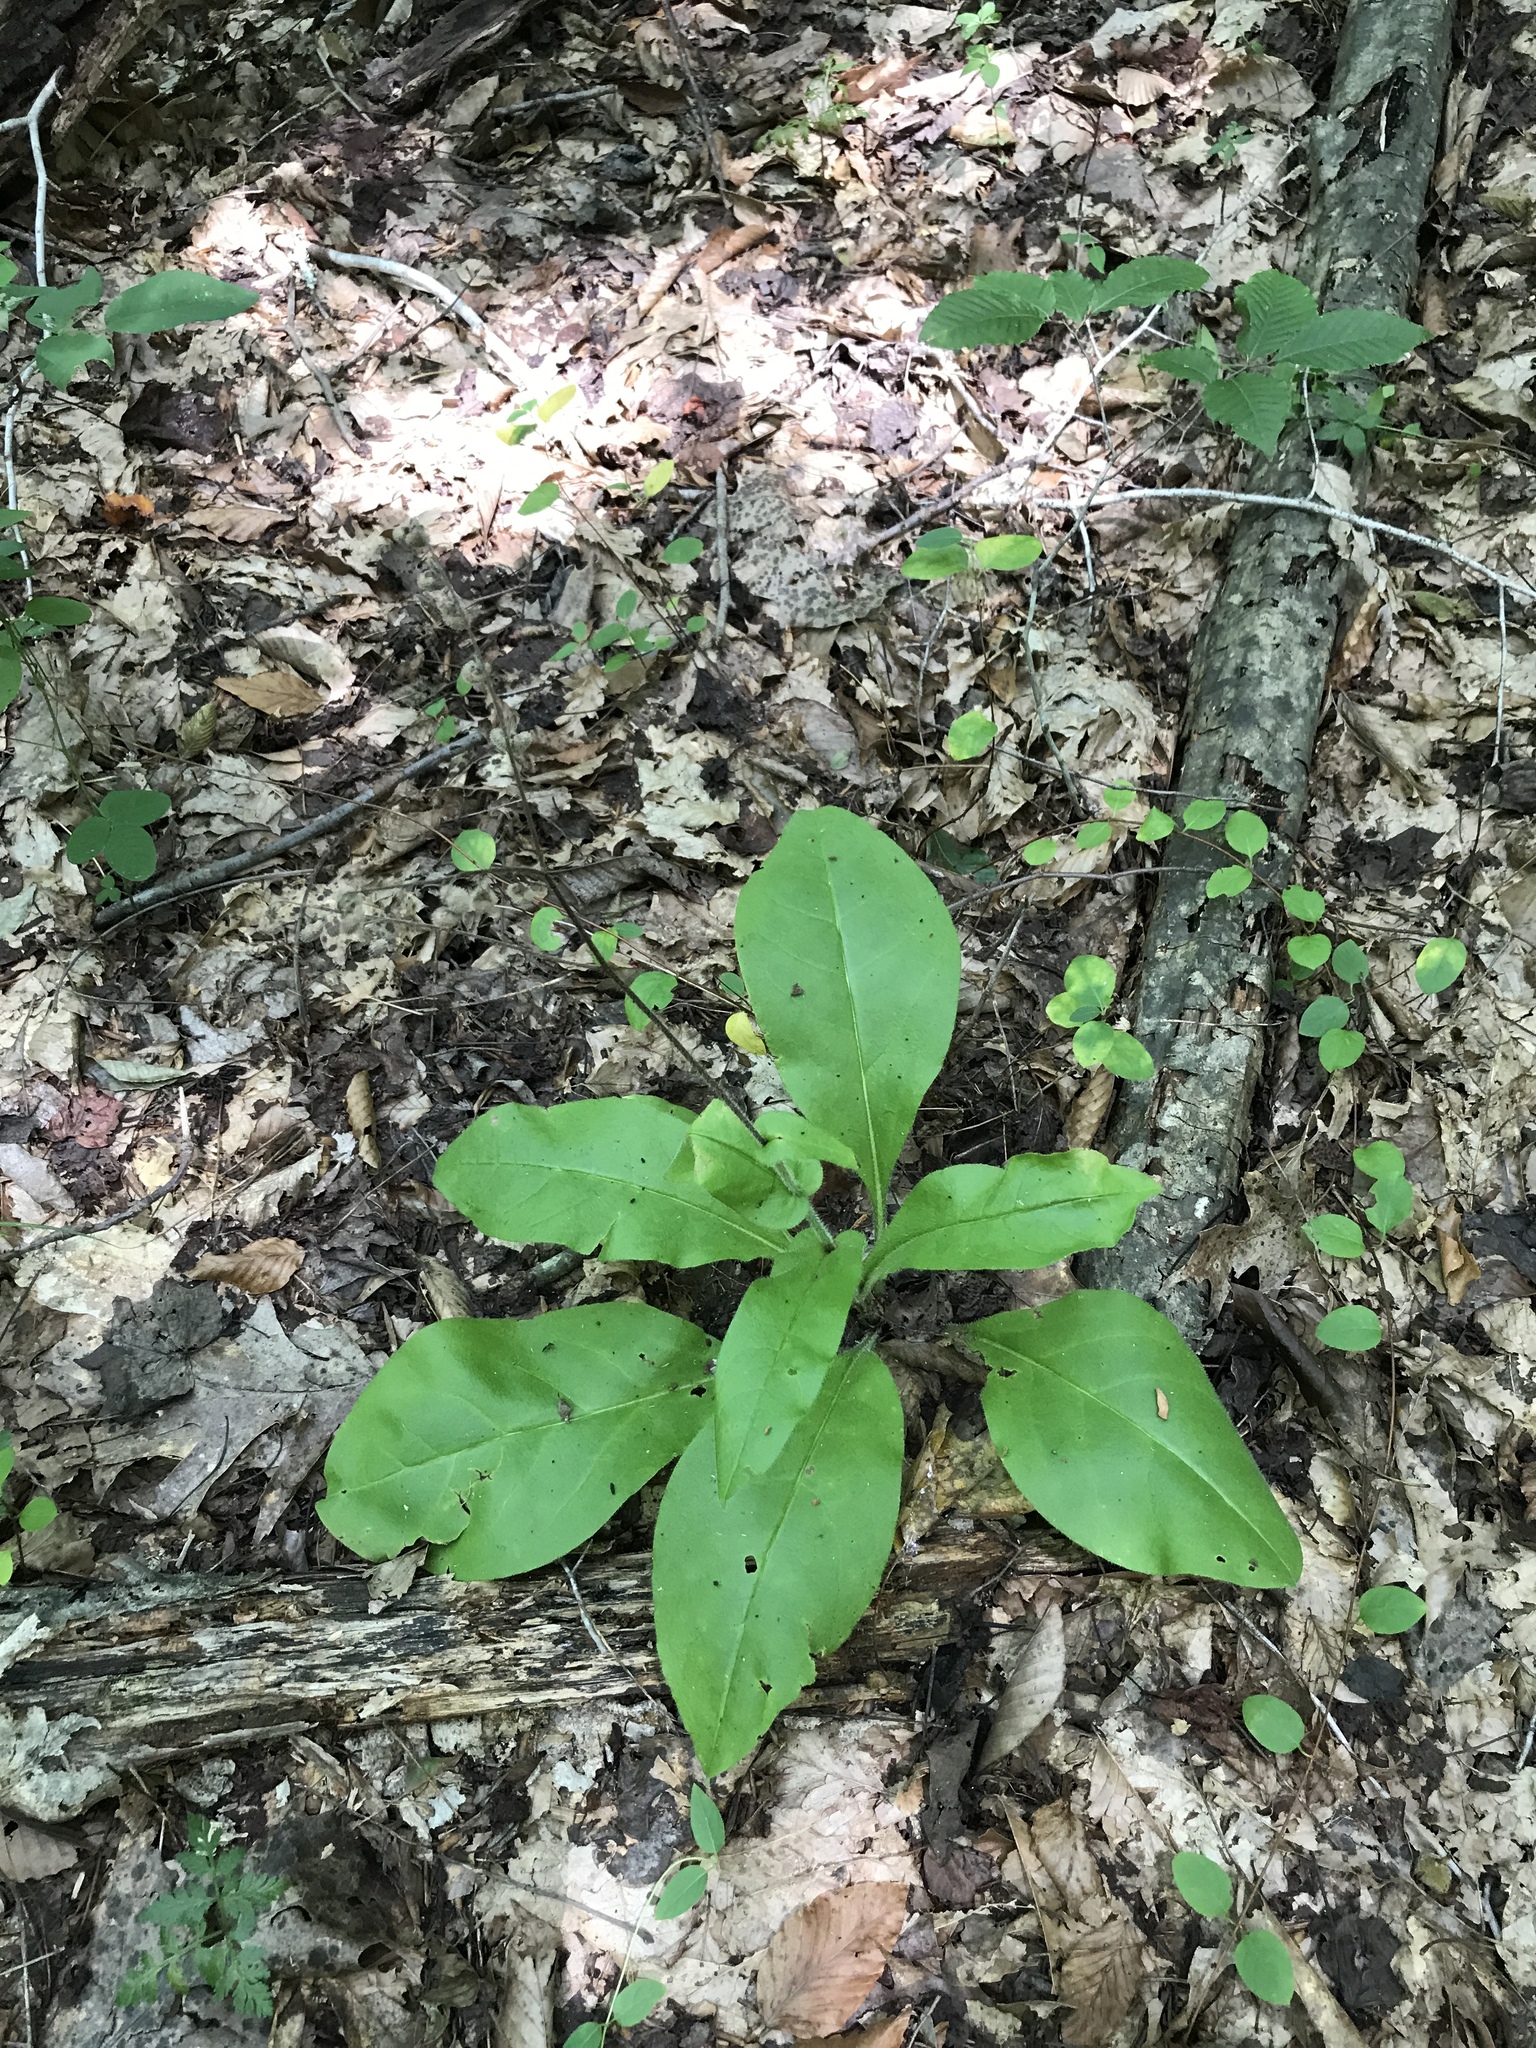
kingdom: Plantae
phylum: Tracheophyta
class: Magnoliopsida
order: Boraginales
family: Boraginaceae
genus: Andersonglossum
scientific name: Andersonglossum virginianum
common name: Wild comfrey
